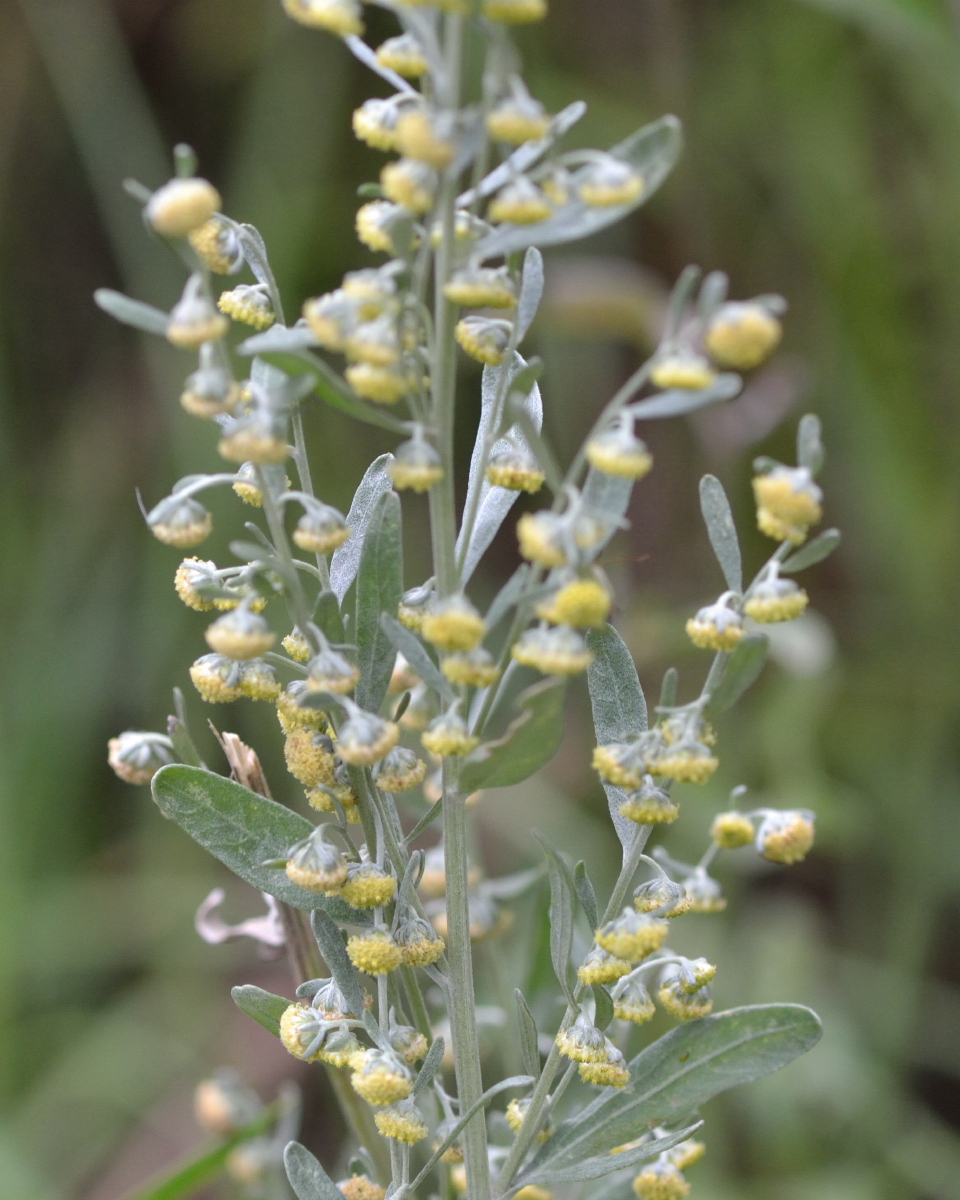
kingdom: Plantae
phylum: Tracheophyta
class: Magnoliopsida
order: Asterales
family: Asteraceae
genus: Artemisia
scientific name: Artemisia absinthium
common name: Wormwood
